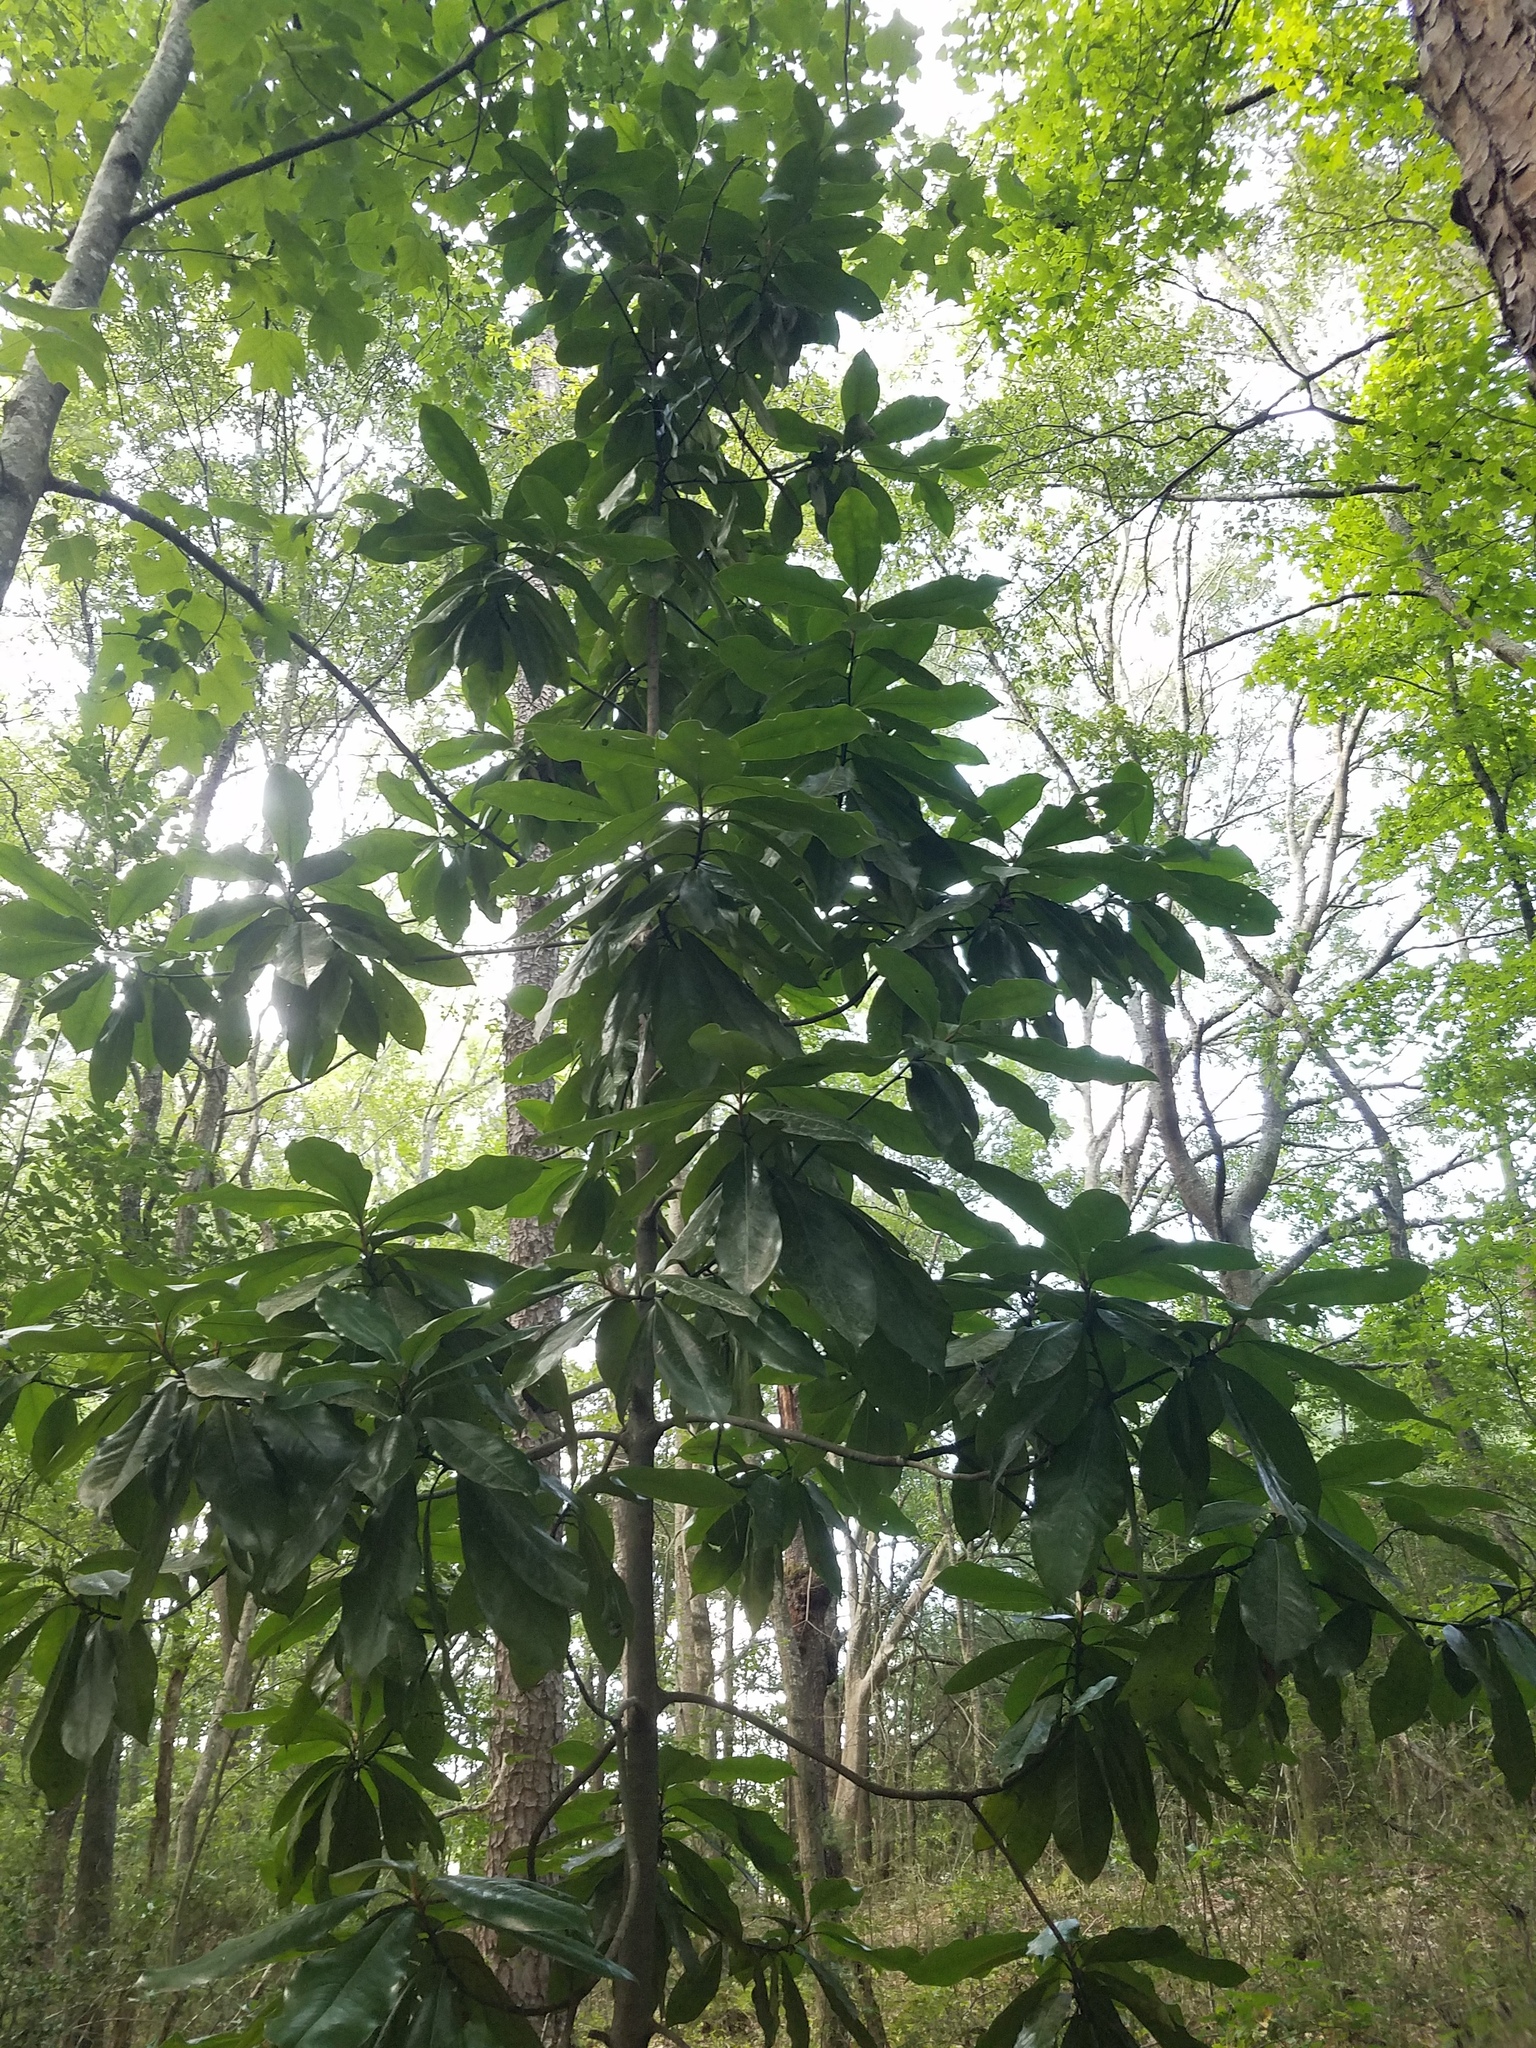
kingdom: Plantae
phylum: Tracheophyta
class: Magnoliopsida
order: Magnoliales
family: Magnoliaceae
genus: Magnolia
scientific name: Magnolia grandiflora
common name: Southern magnolia
